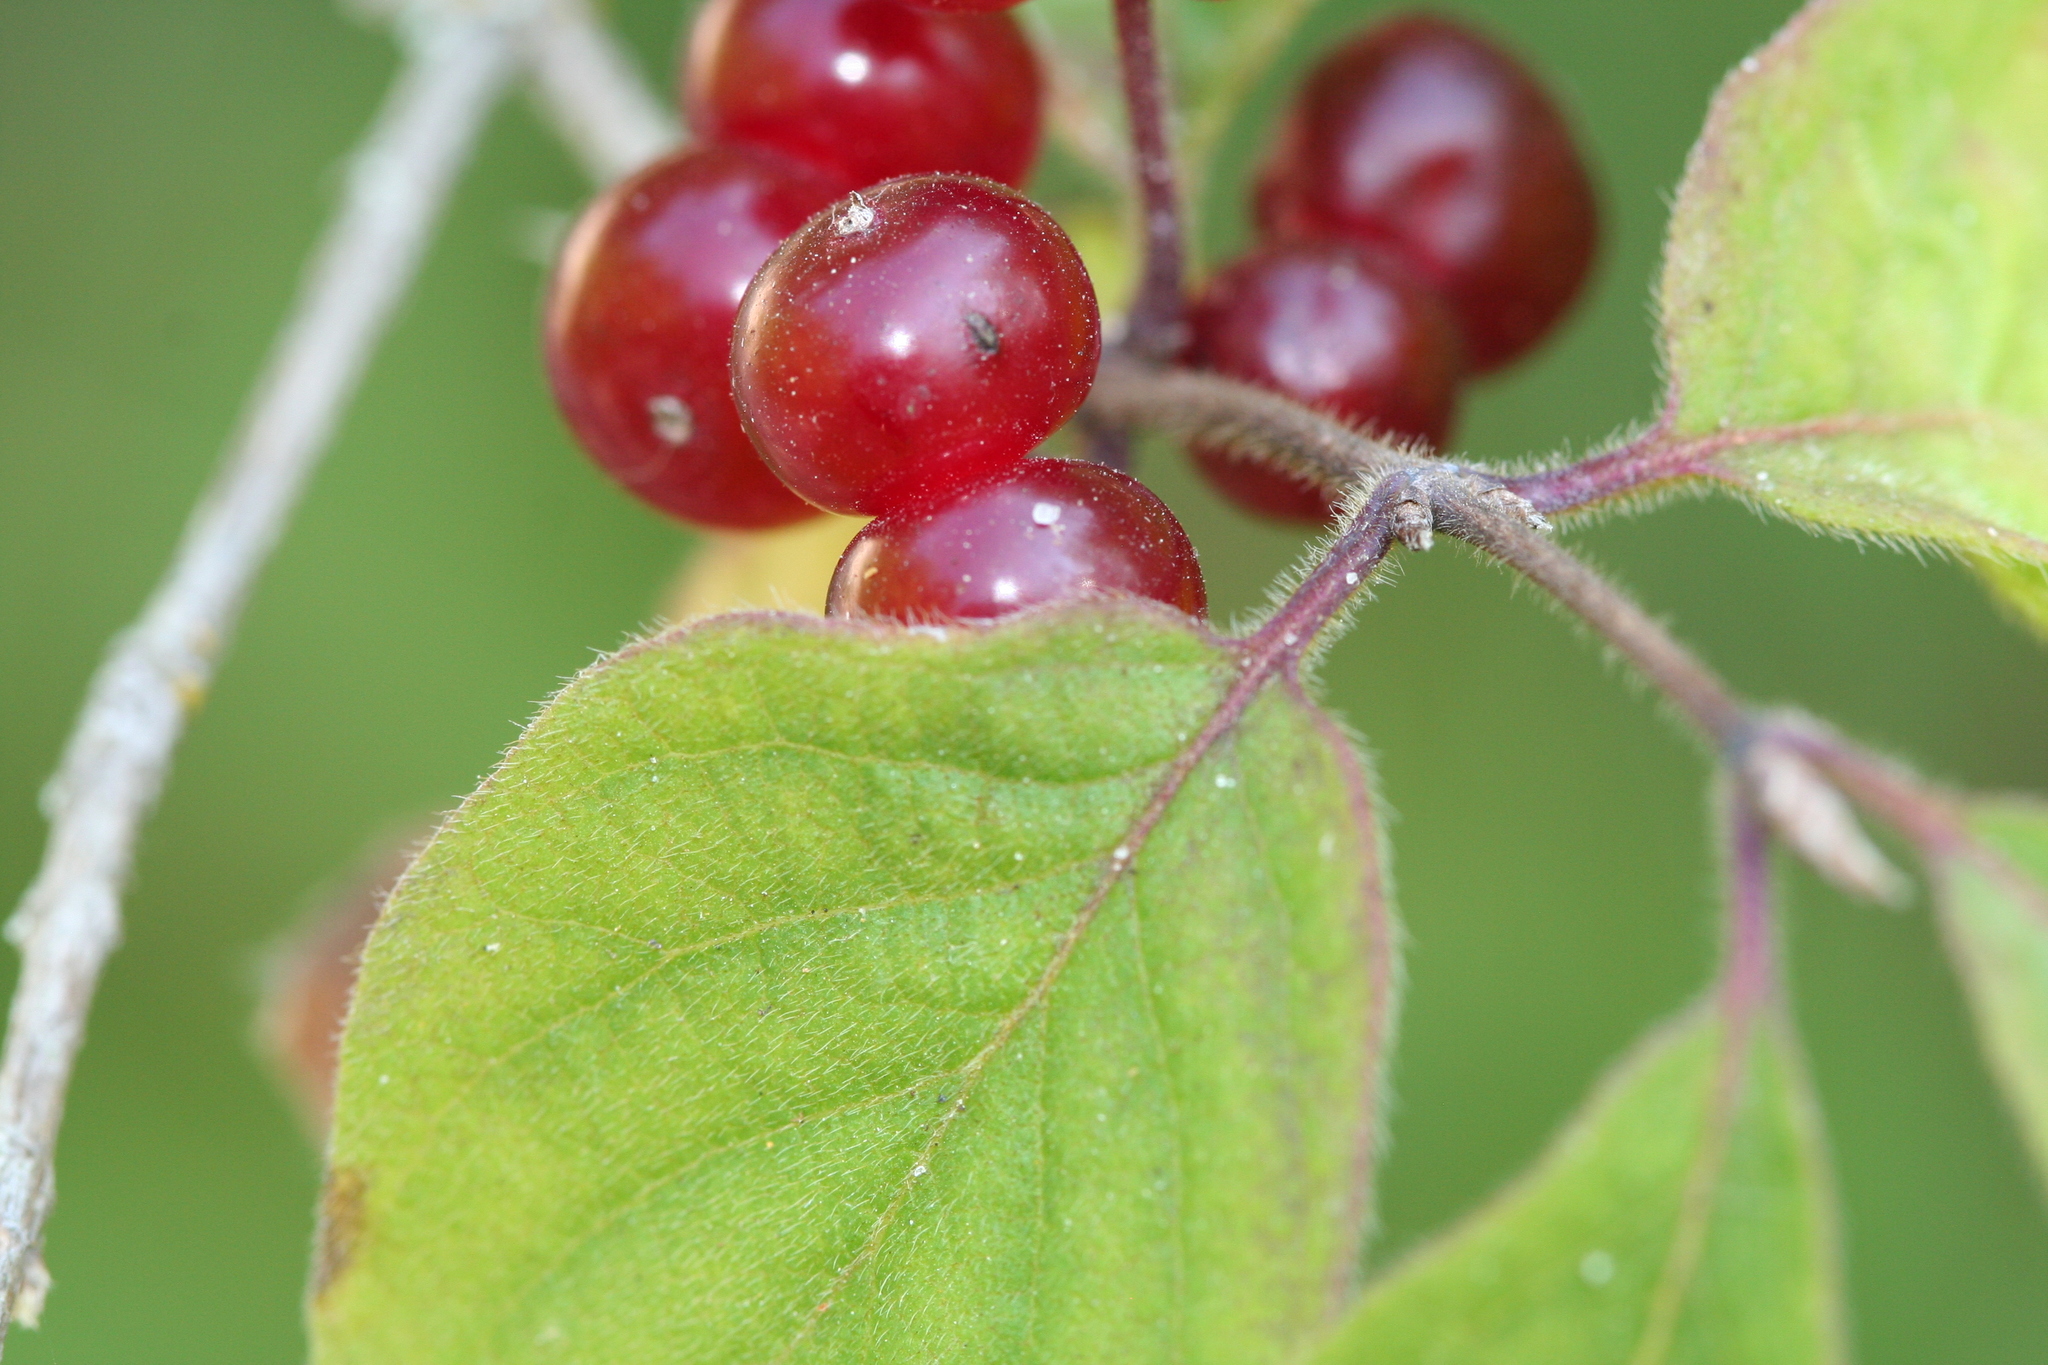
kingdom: Plantae
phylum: Tracheophyta
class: Magnoliopsida
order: Dipsacales
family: Caprifoliaceae
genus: Lonicera
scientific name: Lonicera xylosteum
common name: Fly honeysuckle
